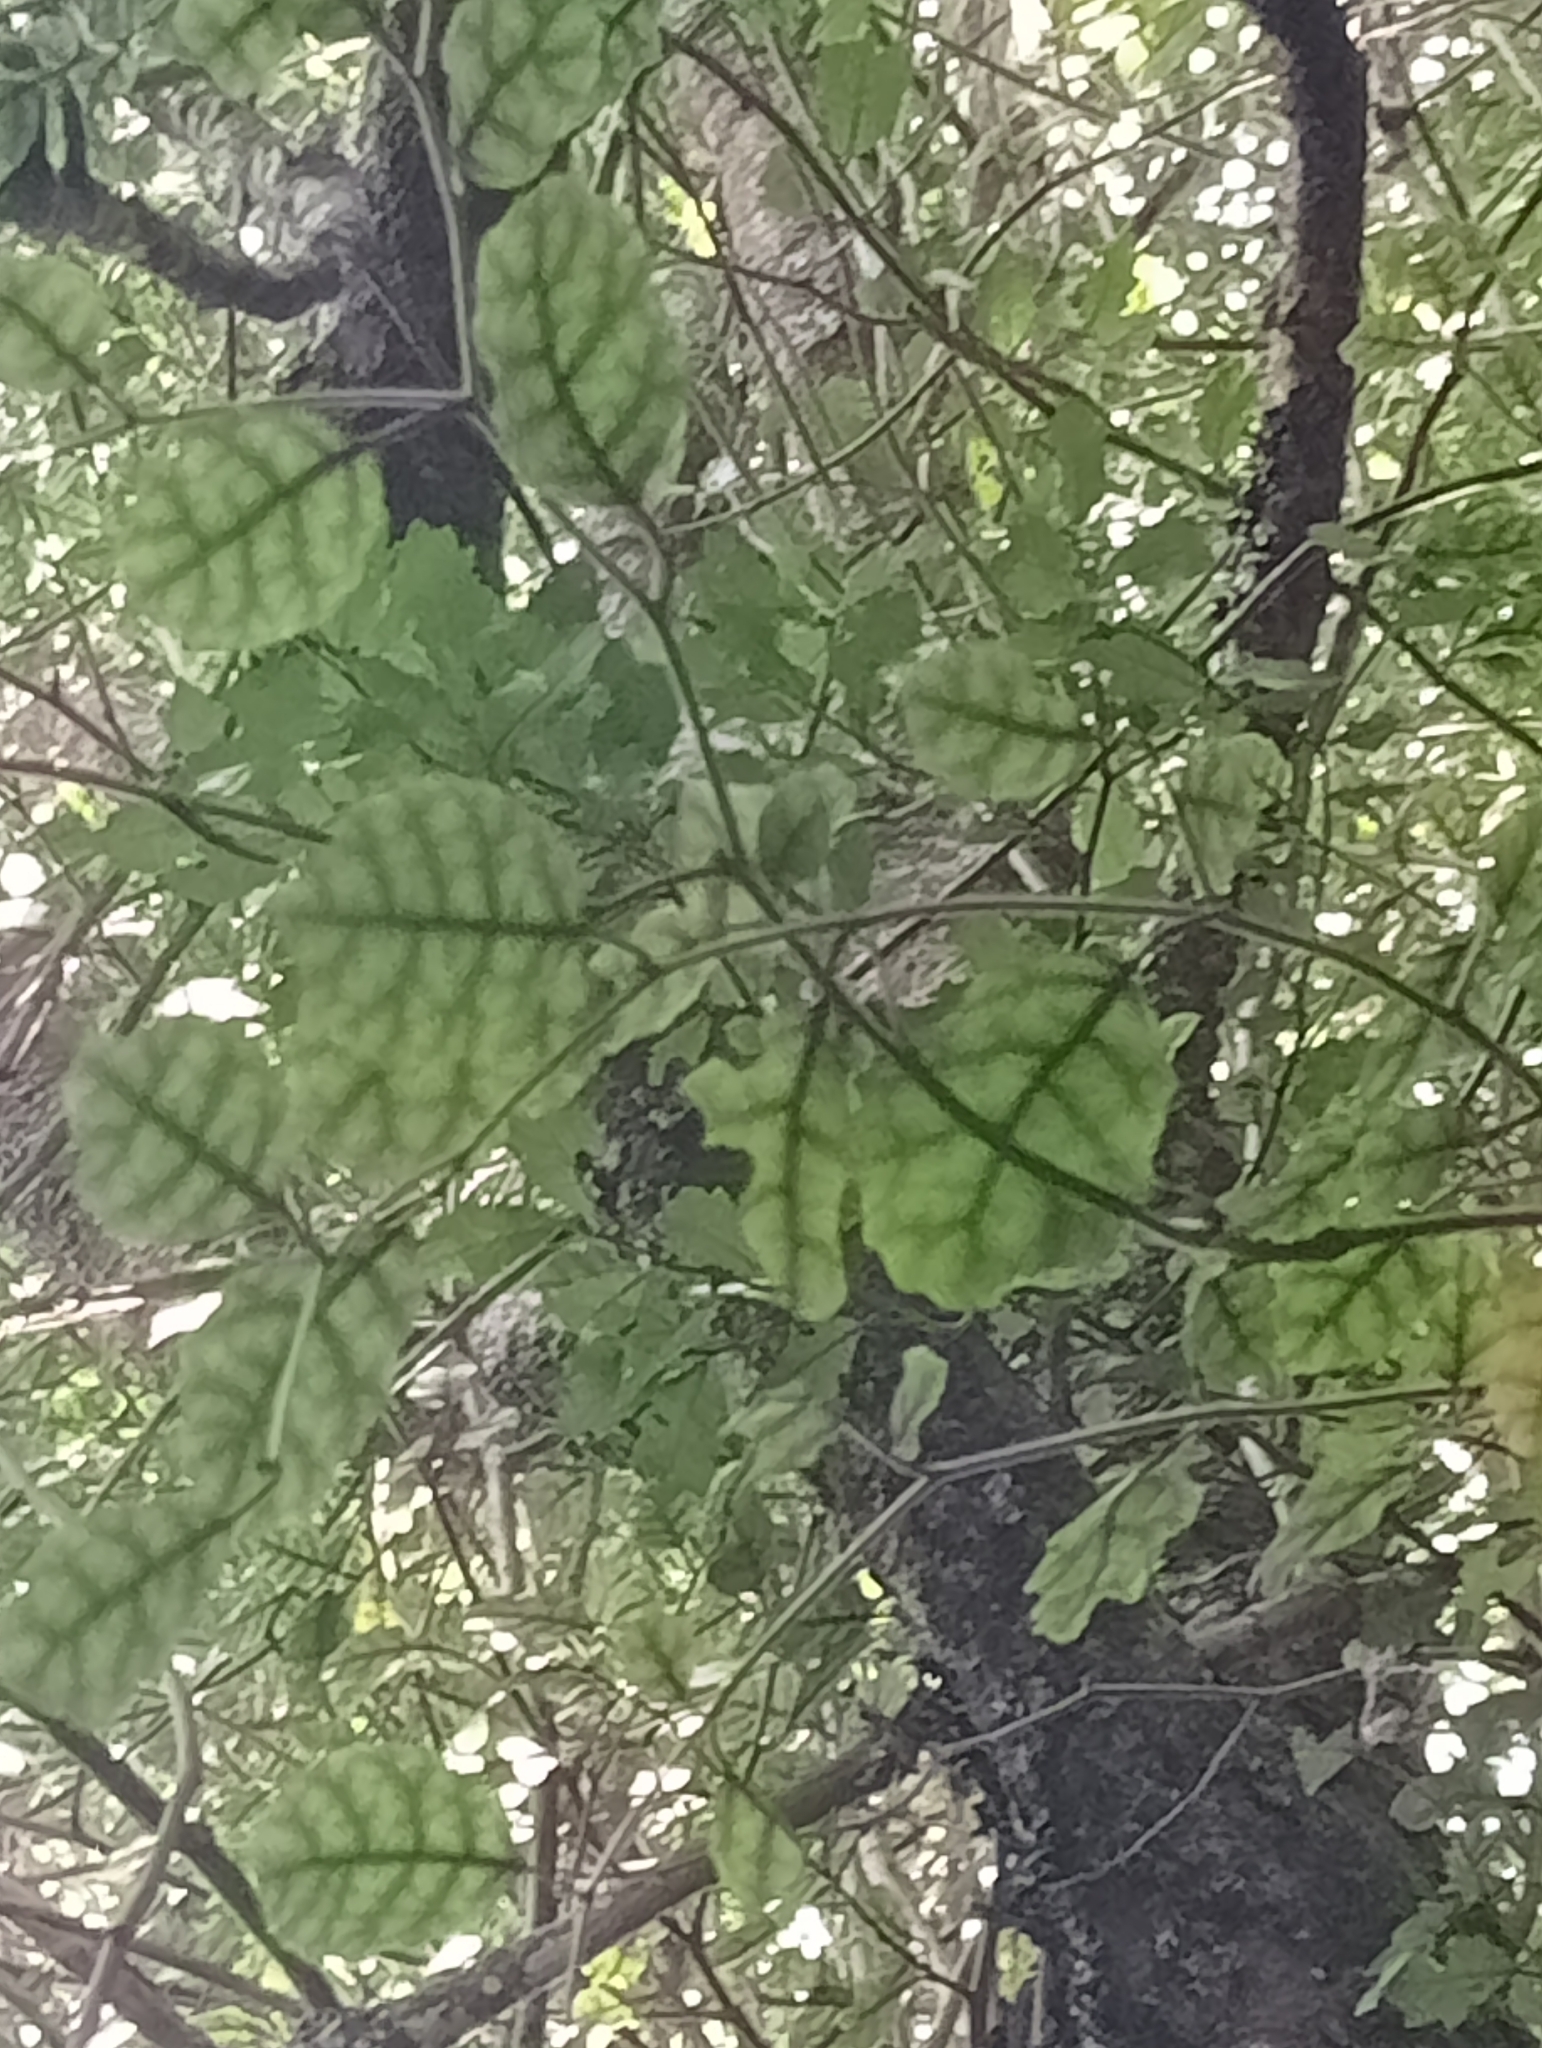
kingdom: Plantae
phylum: Tracheophyta
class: Magnoliopsida
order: Asterales
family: Rousseaceae
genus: Carpodetus
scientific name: Carpodetus serratus
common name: White mapau
